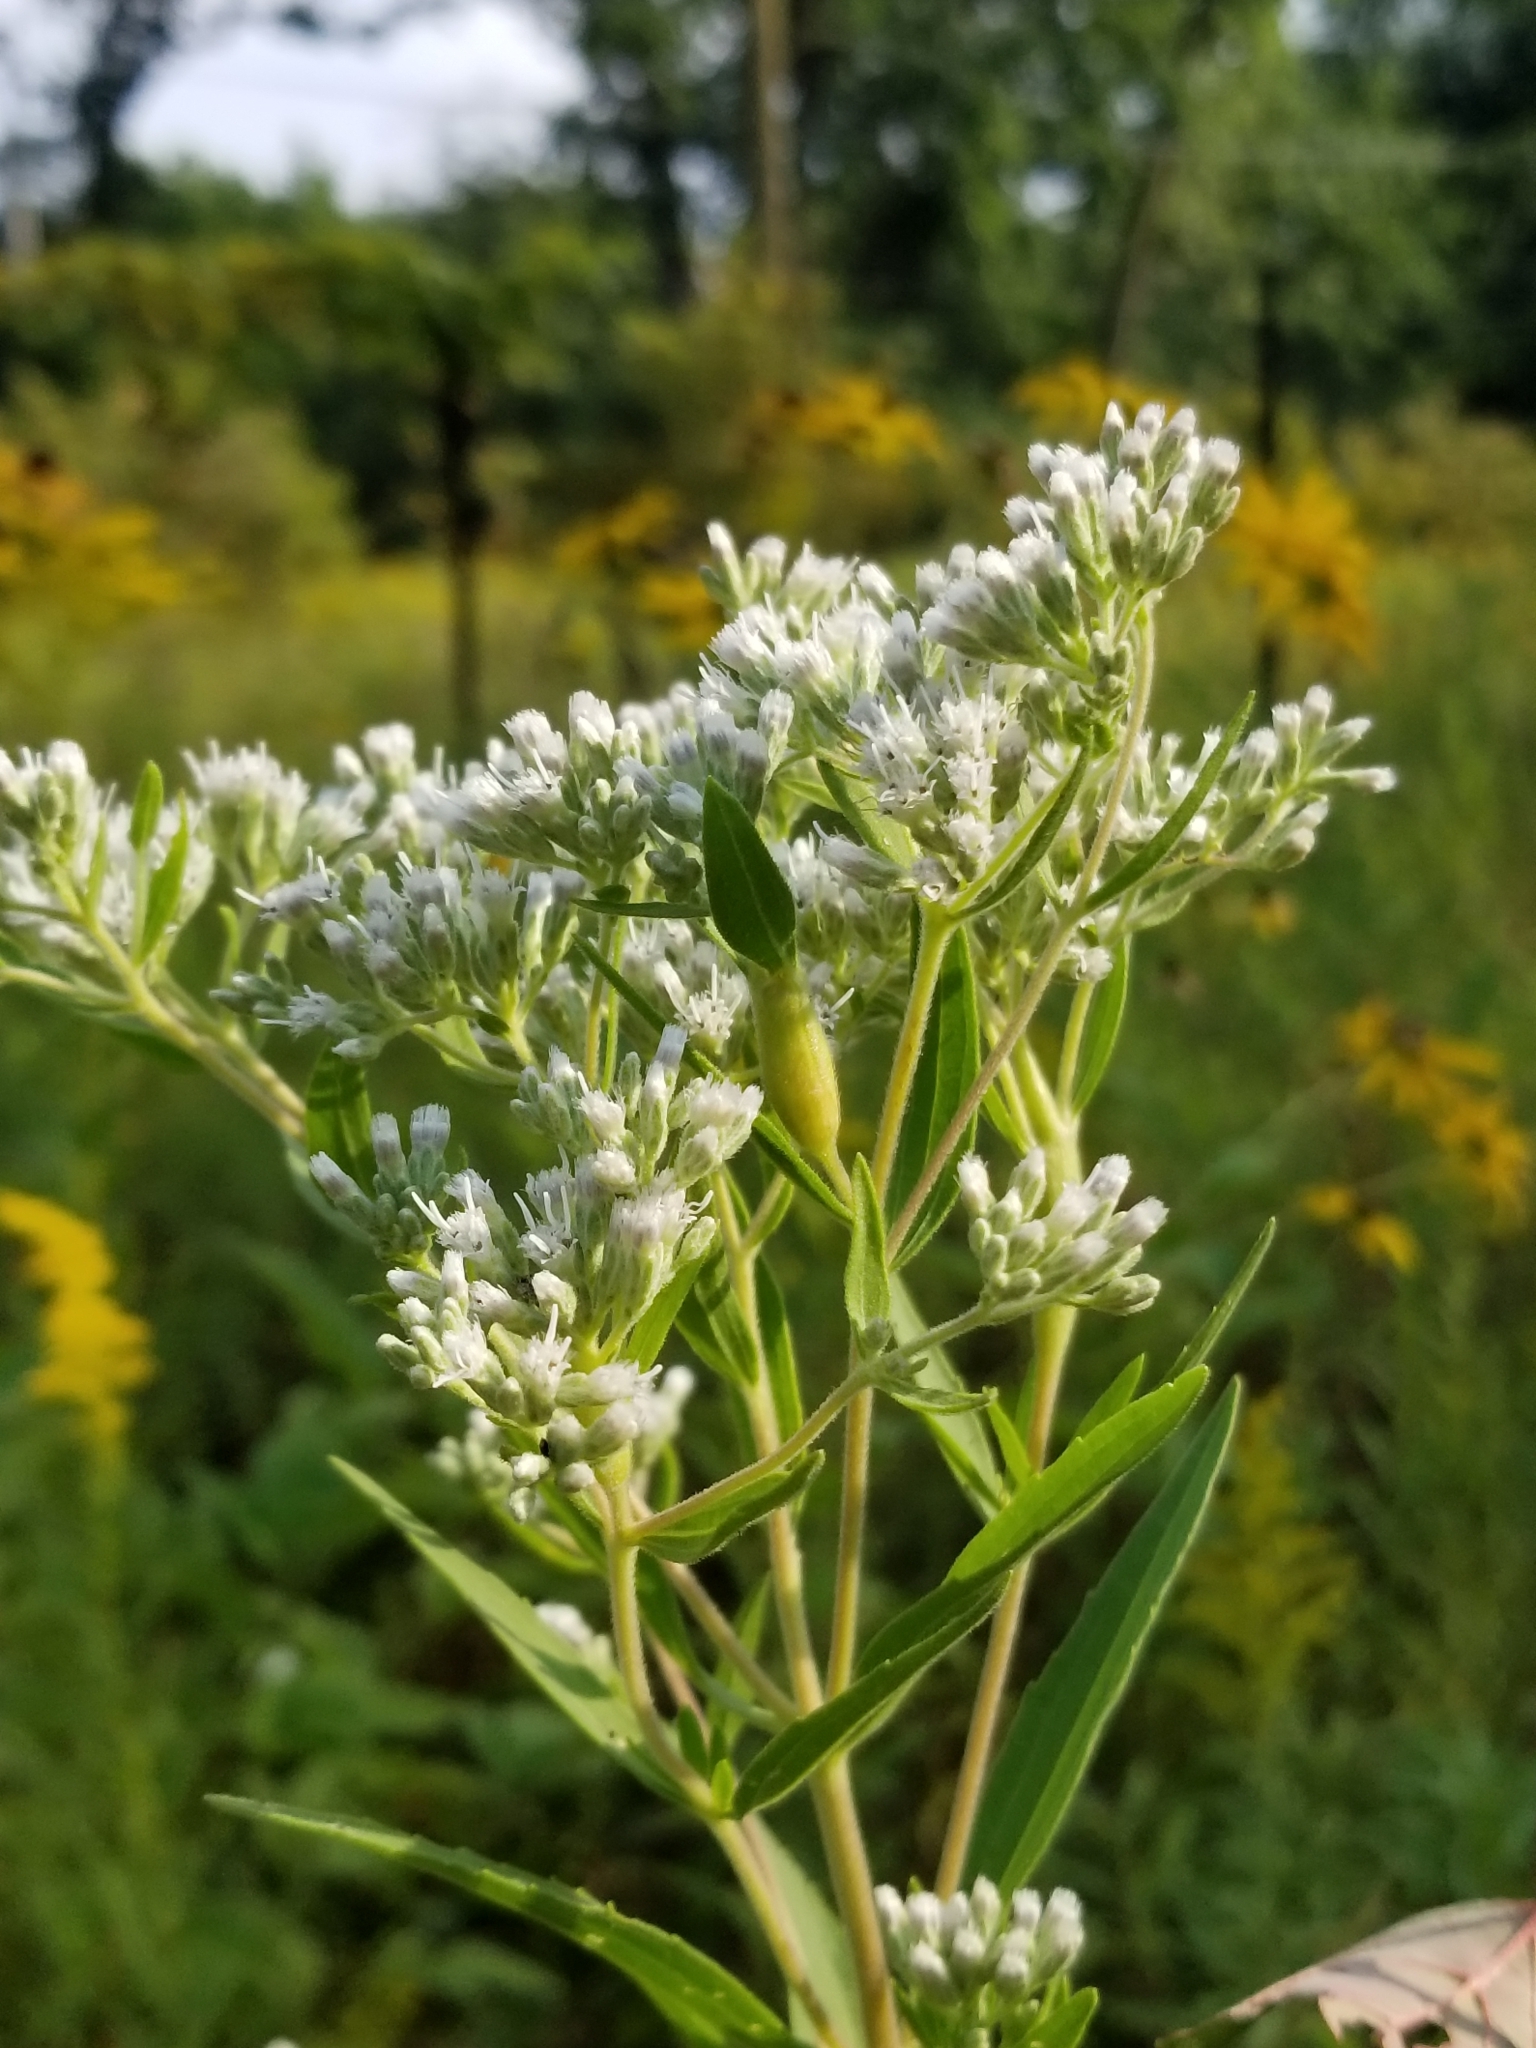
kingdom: Plantae
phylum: Tracheophyta
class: Magnoliopsida
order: Asterales
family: Asteraceae
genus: Eupatorium
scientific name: Eupatorium altissimum
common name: Tall thoroughwort
